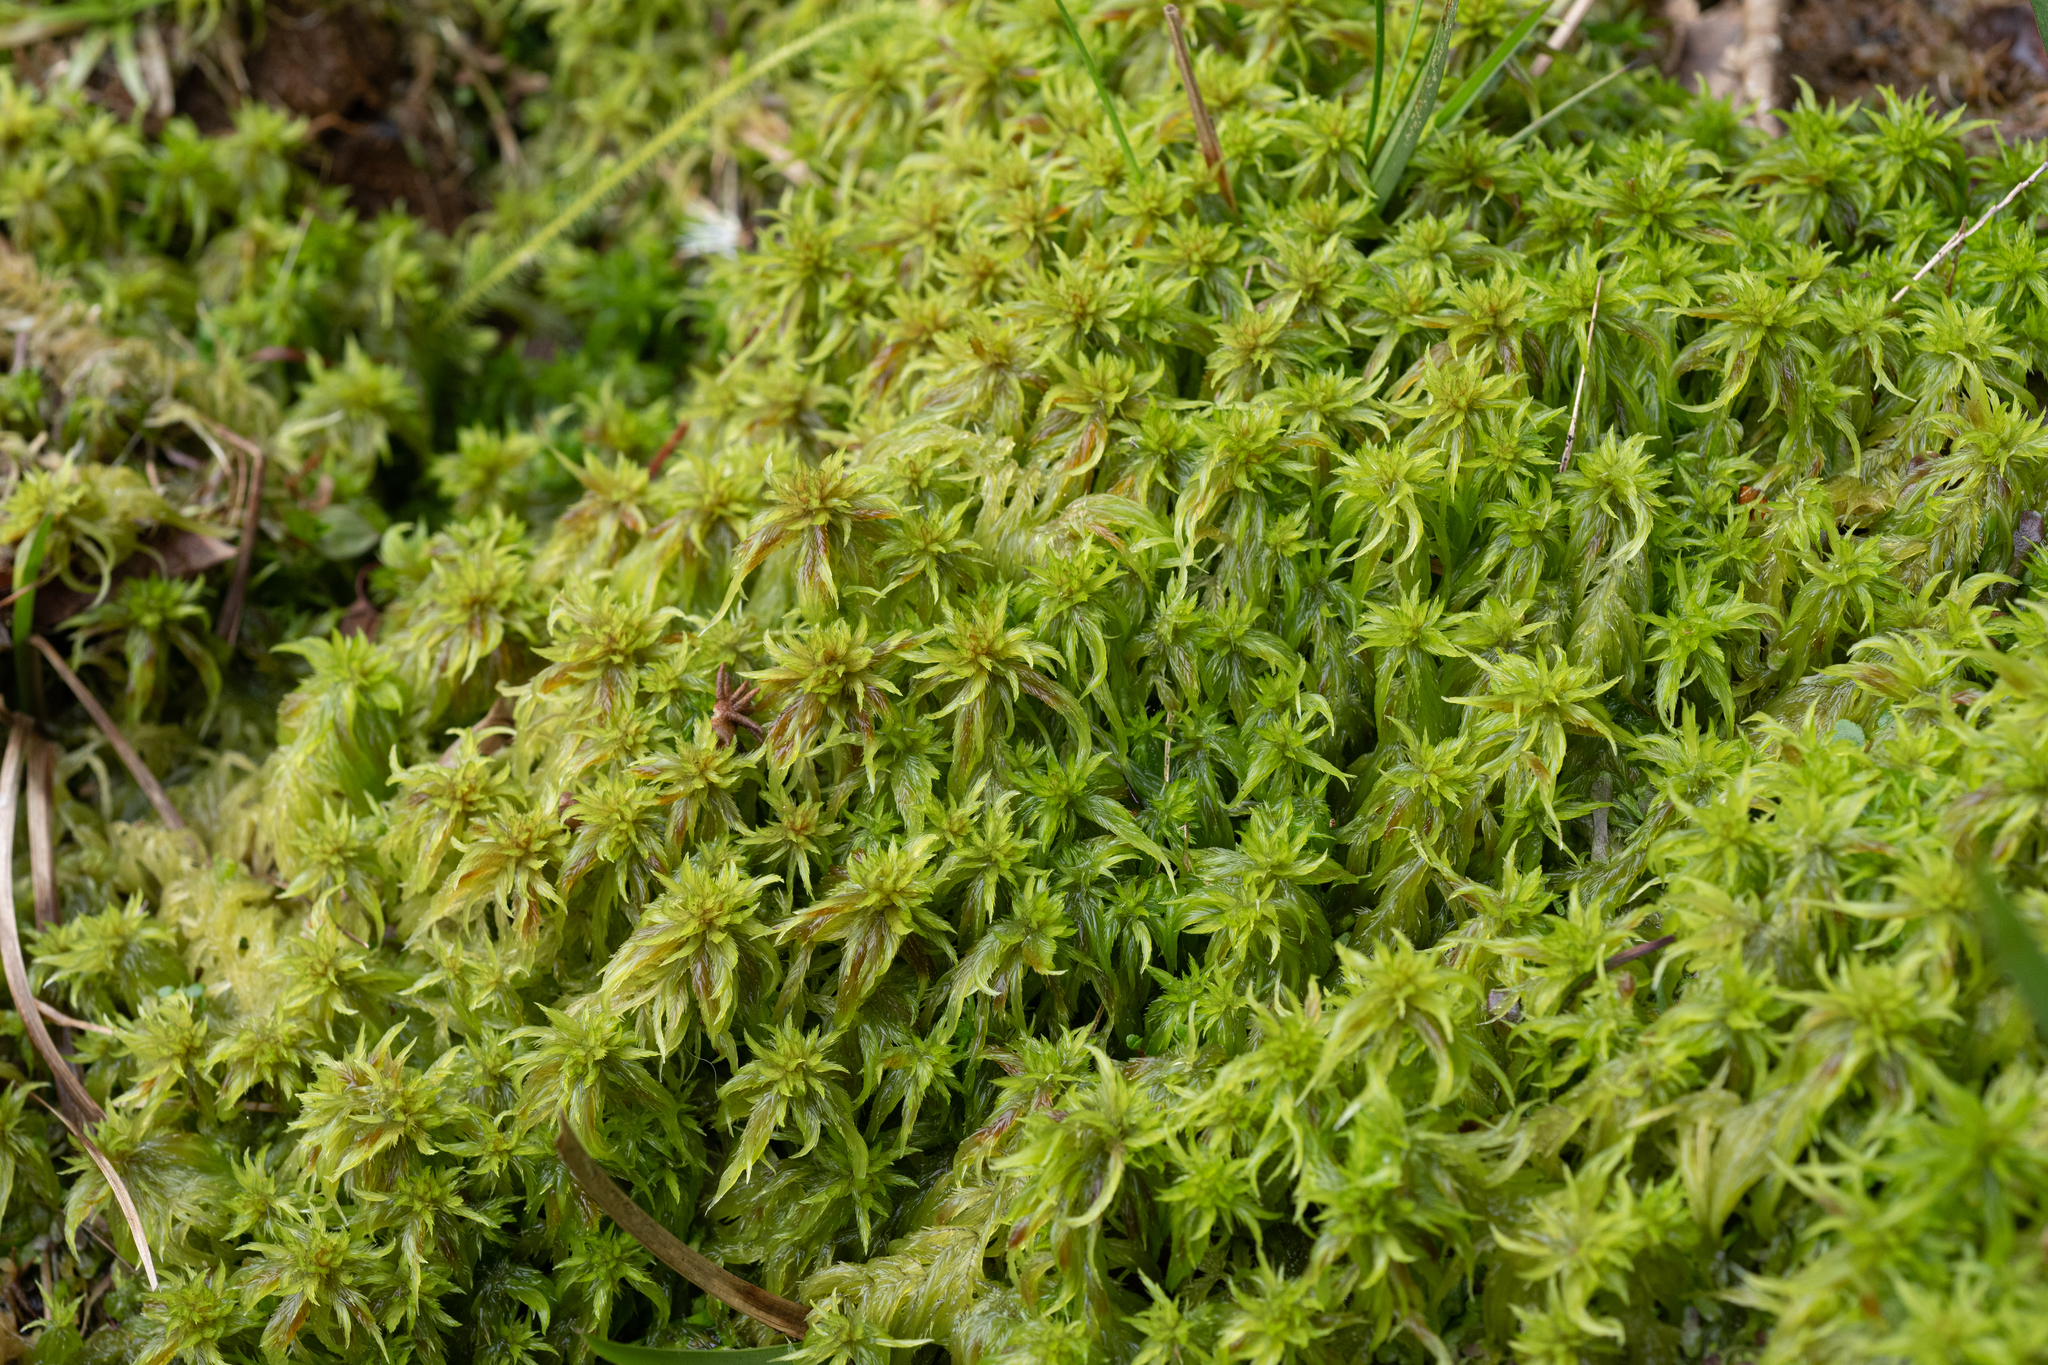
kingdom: Plantae
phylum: Bryophyta
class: Sphagnopsida
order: Sphagnales
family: Sphagnaceae
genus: Sphagnum
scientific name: Sphagnum cuspidatum
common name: Feathery peat moss
